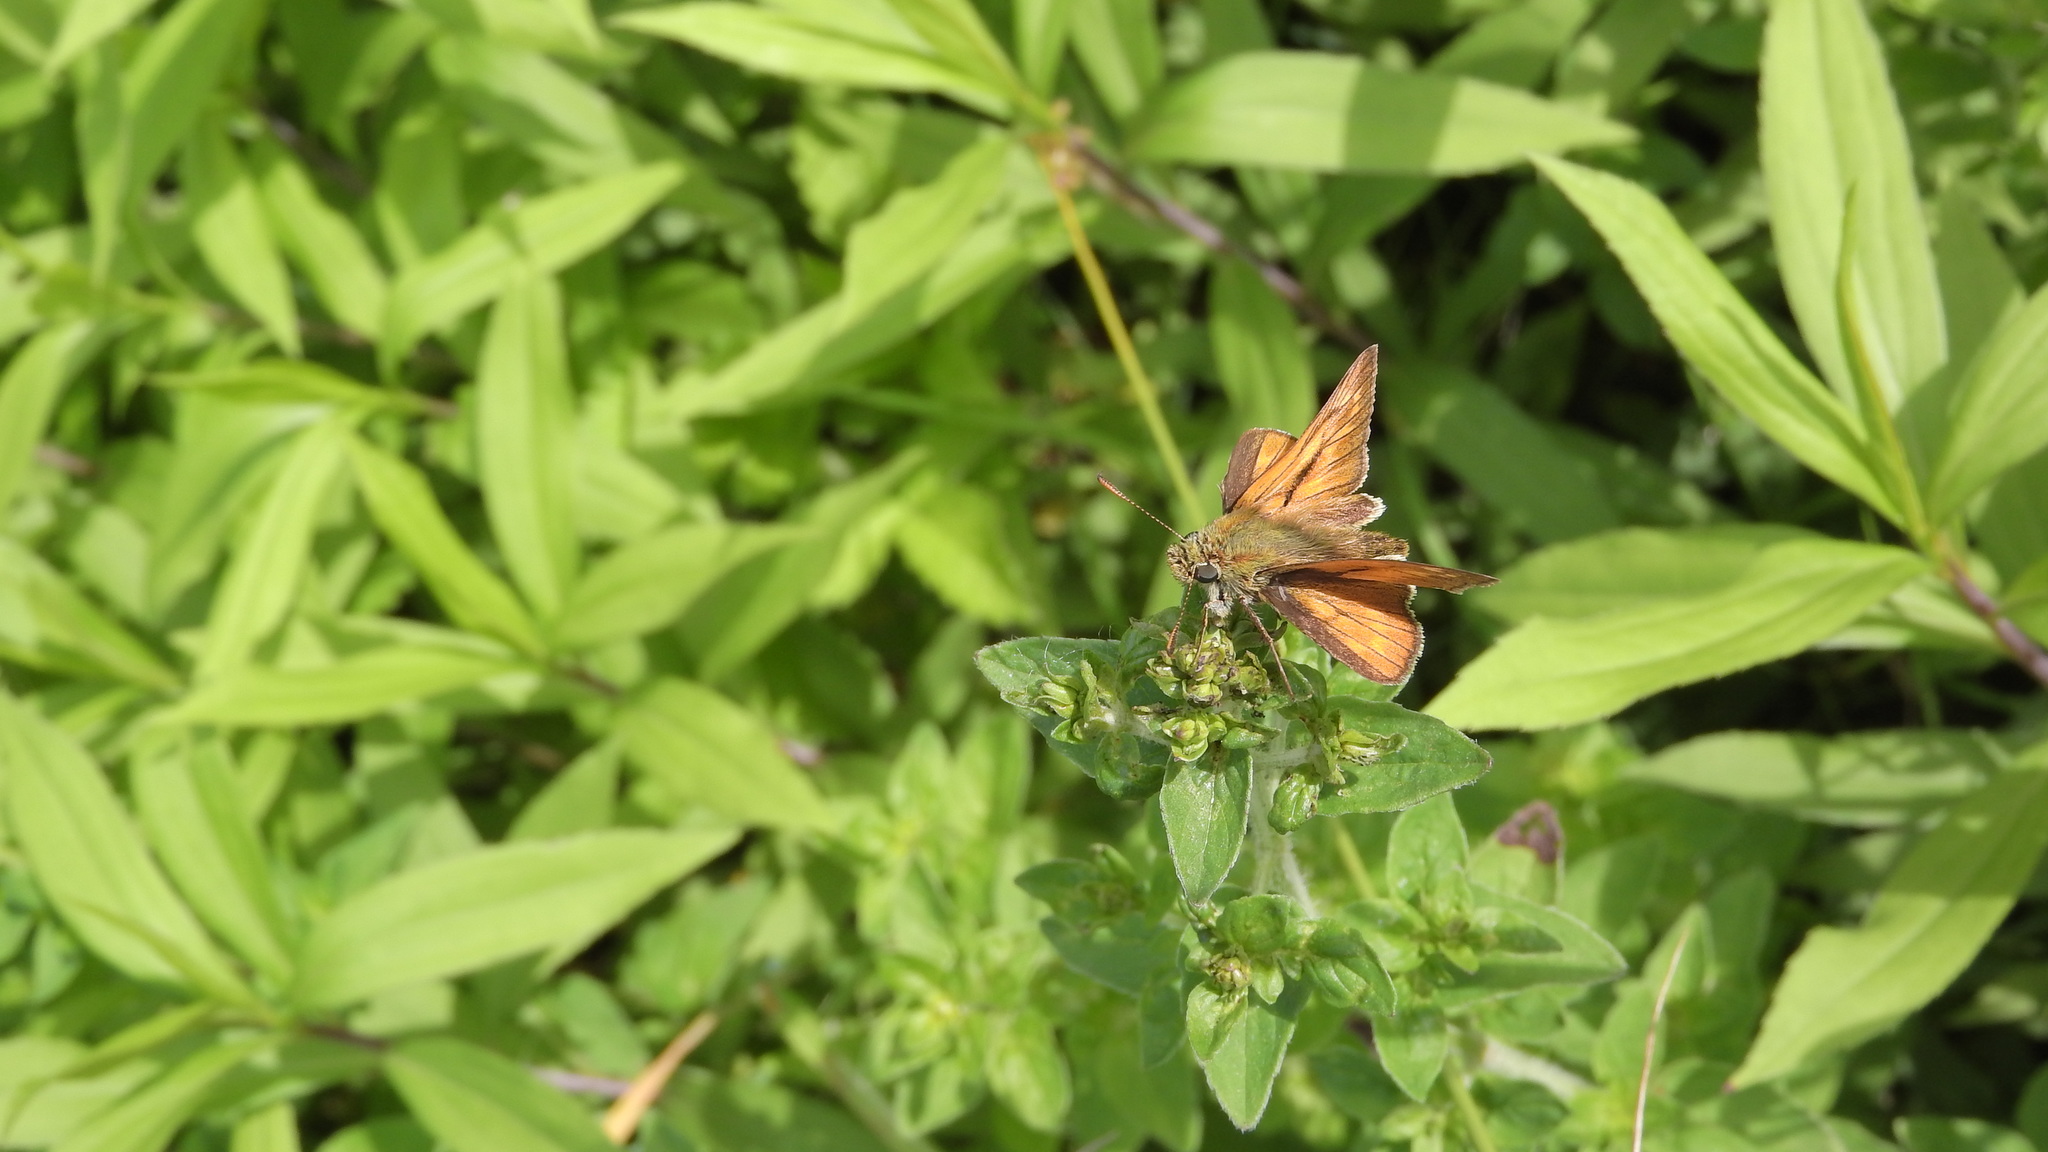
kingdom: Animalia
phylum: Arthropoda
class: Insecta
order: Lepidoptera
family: Hesperiidae
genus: Ochlodes
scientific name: Ochlodes venata
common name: Large skipper
